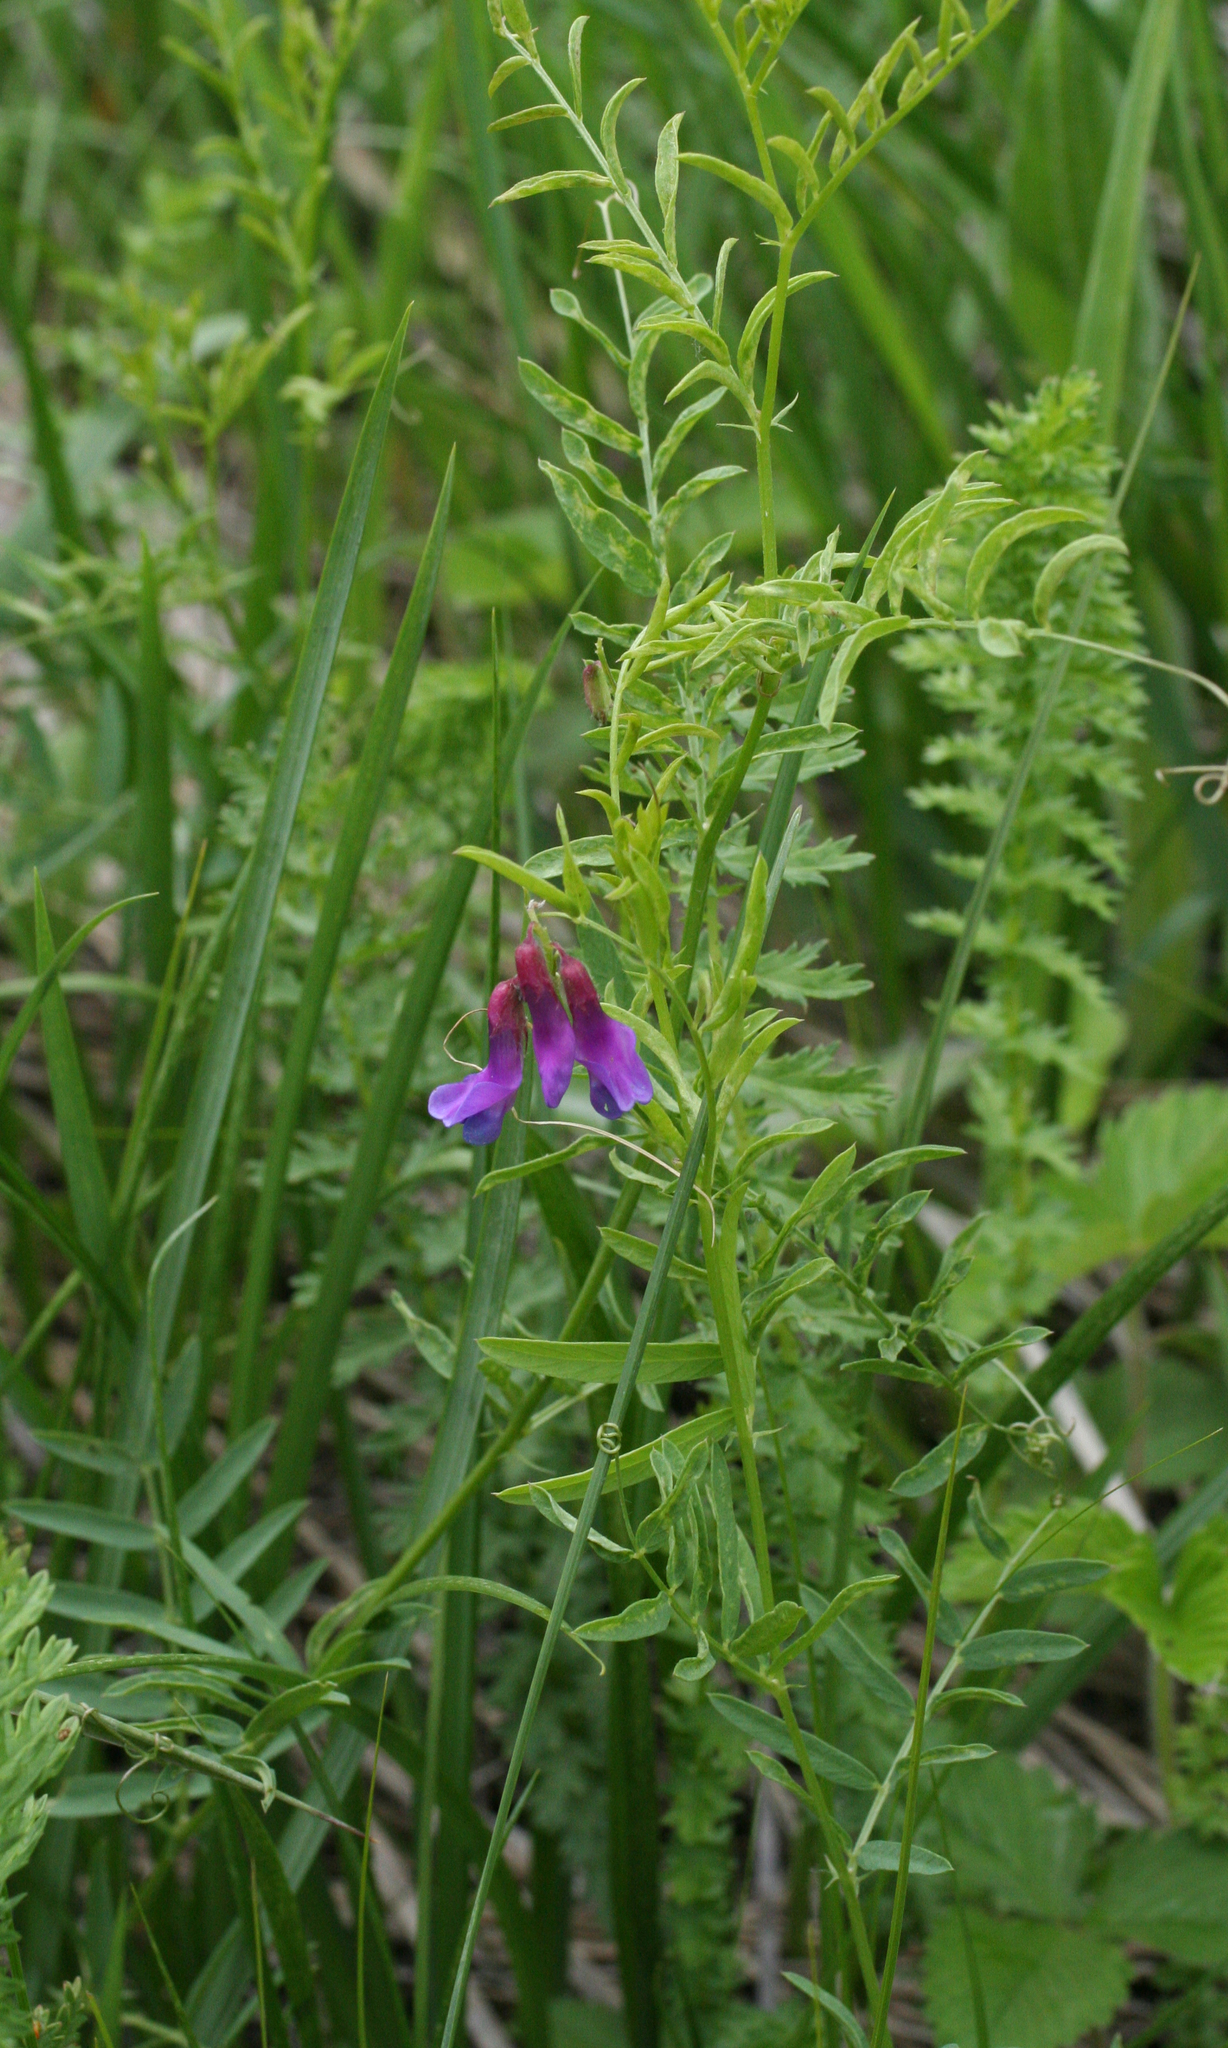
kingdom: Plantae
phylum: Tracheophyta
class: Magnoliopsida
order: Fabales
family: Fabaceae
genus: Vicia
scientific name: Vicia multicaulis
